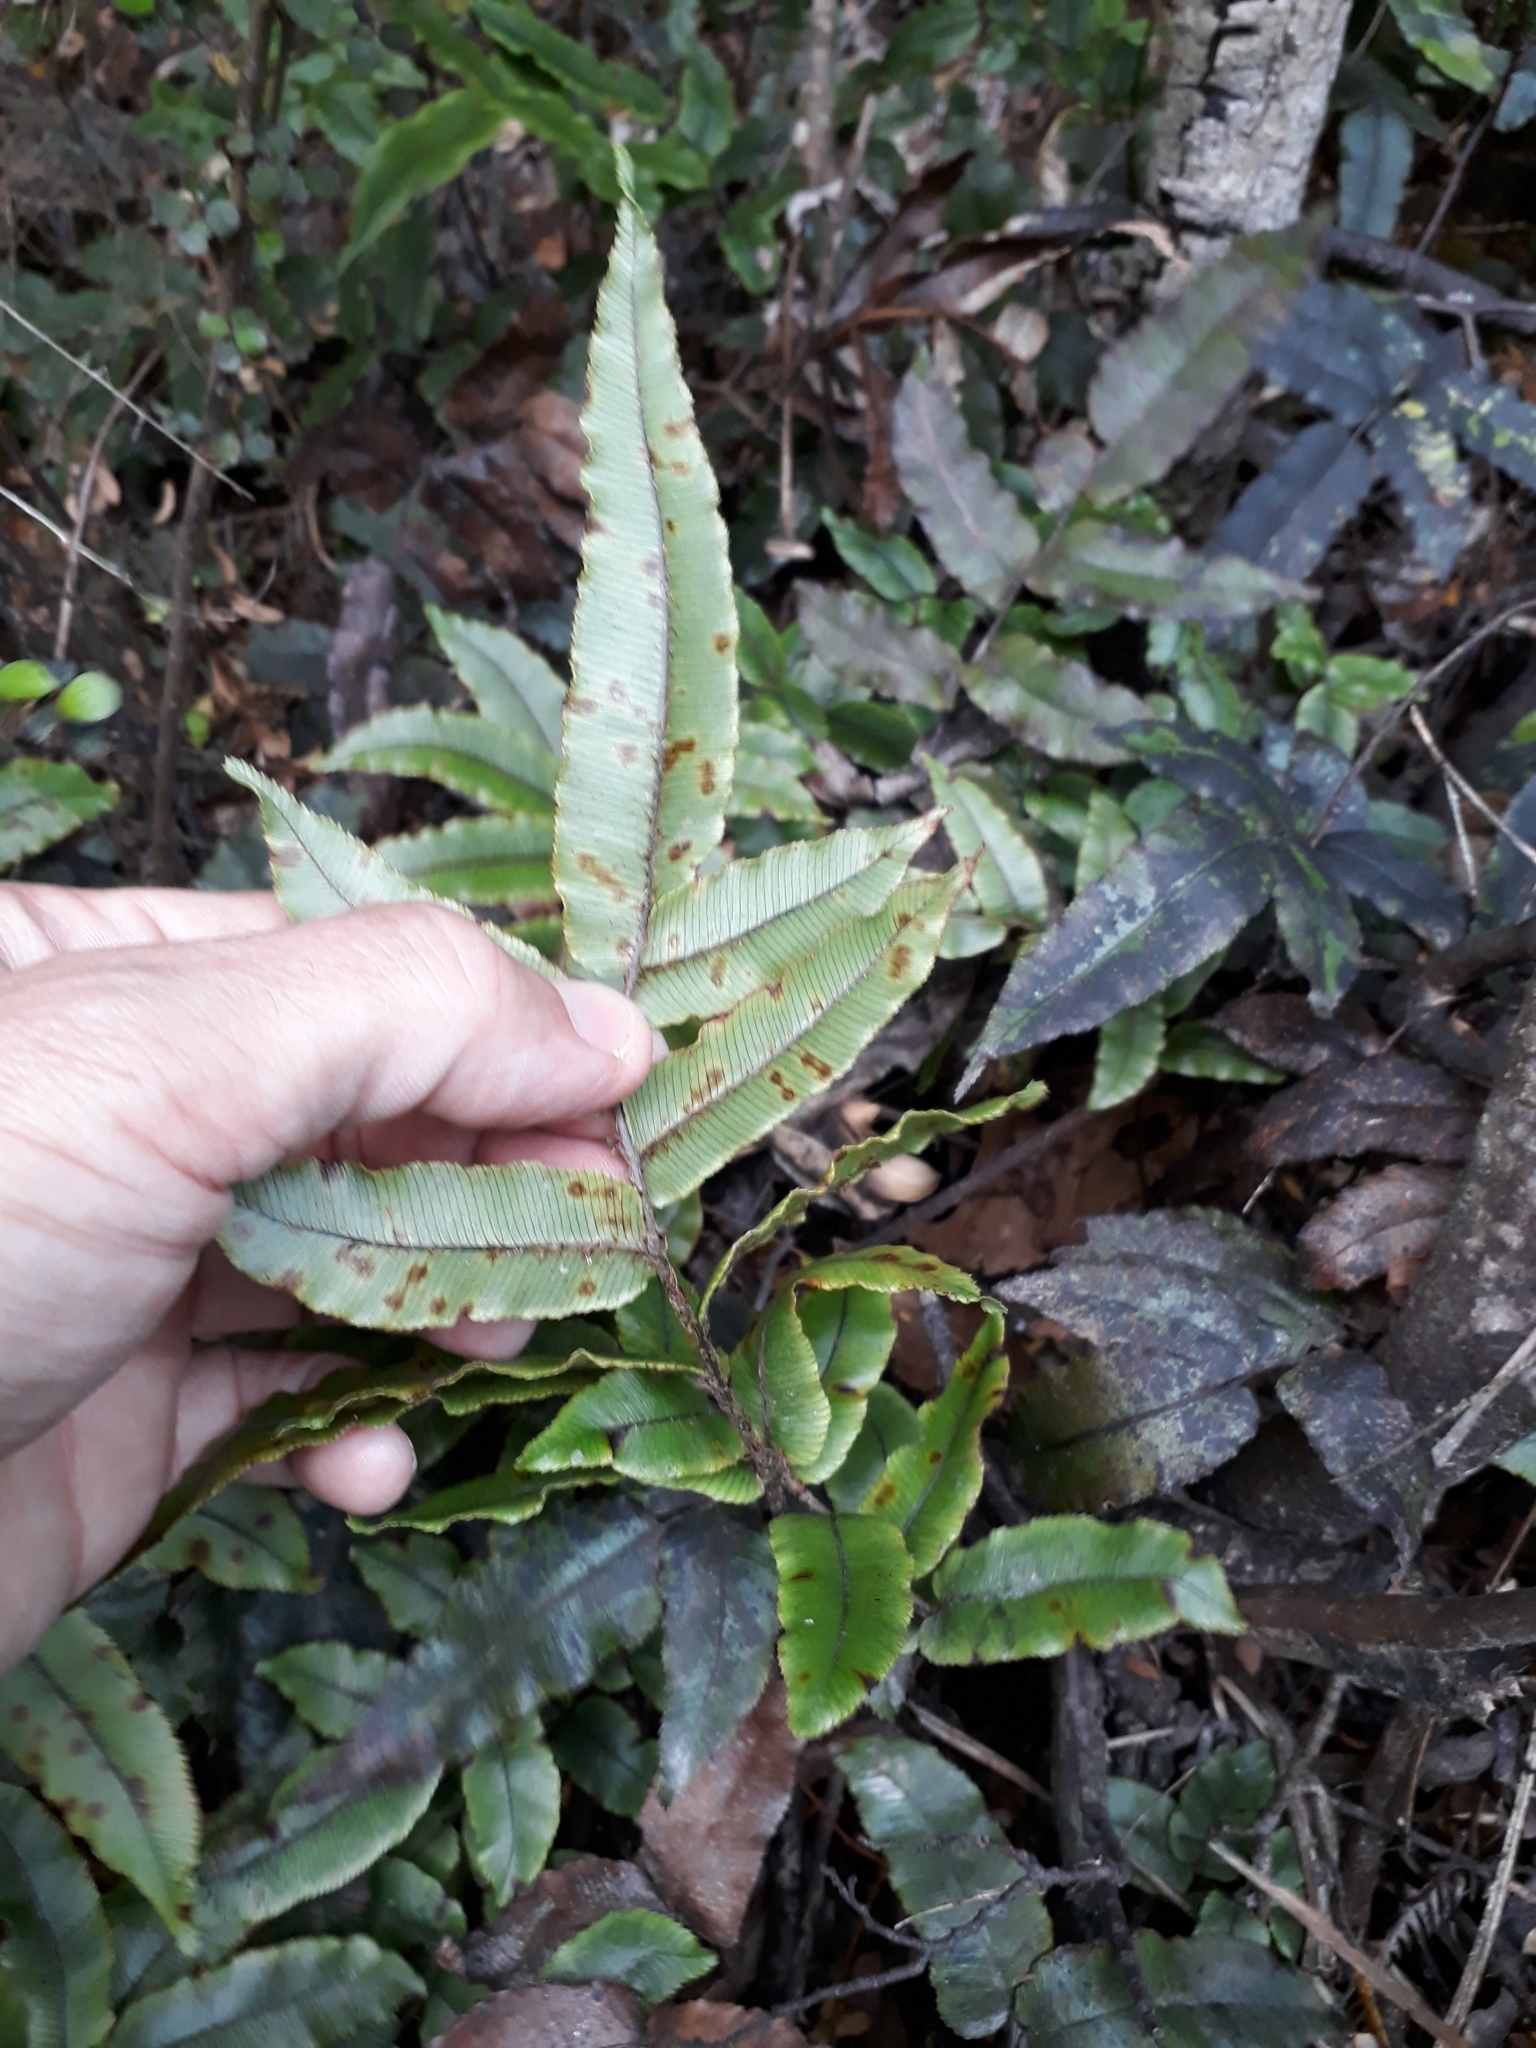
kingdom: Plantae
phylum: Tracheophyta
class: Polypodiopsida
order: Polypodiales
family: Blechnaceae
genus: Parablechnum
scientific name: Parablechnum procerum
